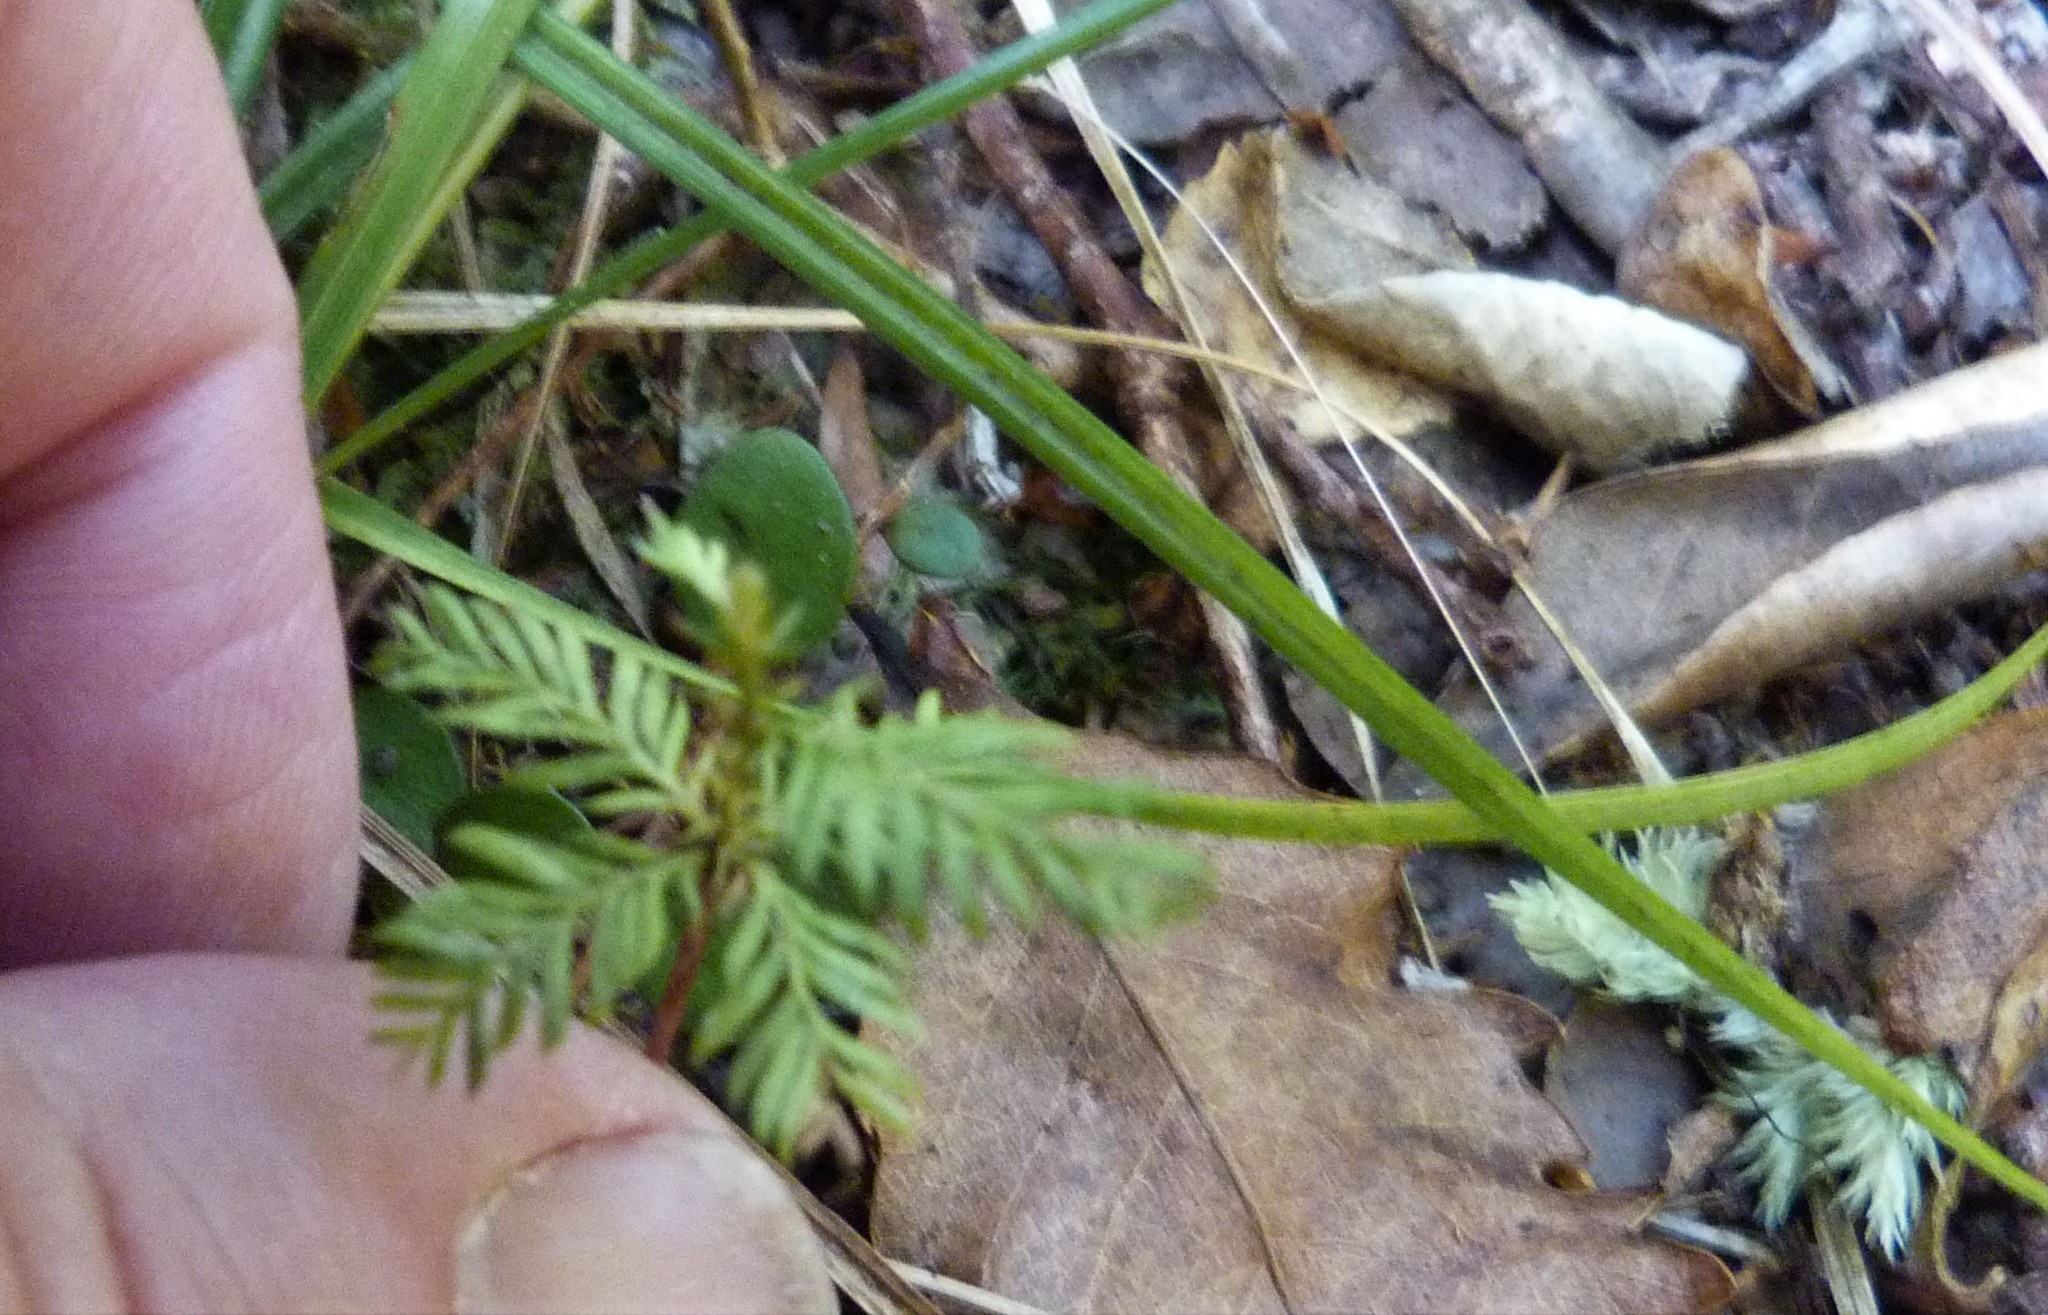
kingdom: Plantae
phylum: Tracheophyta
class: Pinopsida
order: Pinales
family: Podocarpaceae
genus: Dacrycarpus
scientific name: Dacrycarpus dacrydioides
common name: White pine
